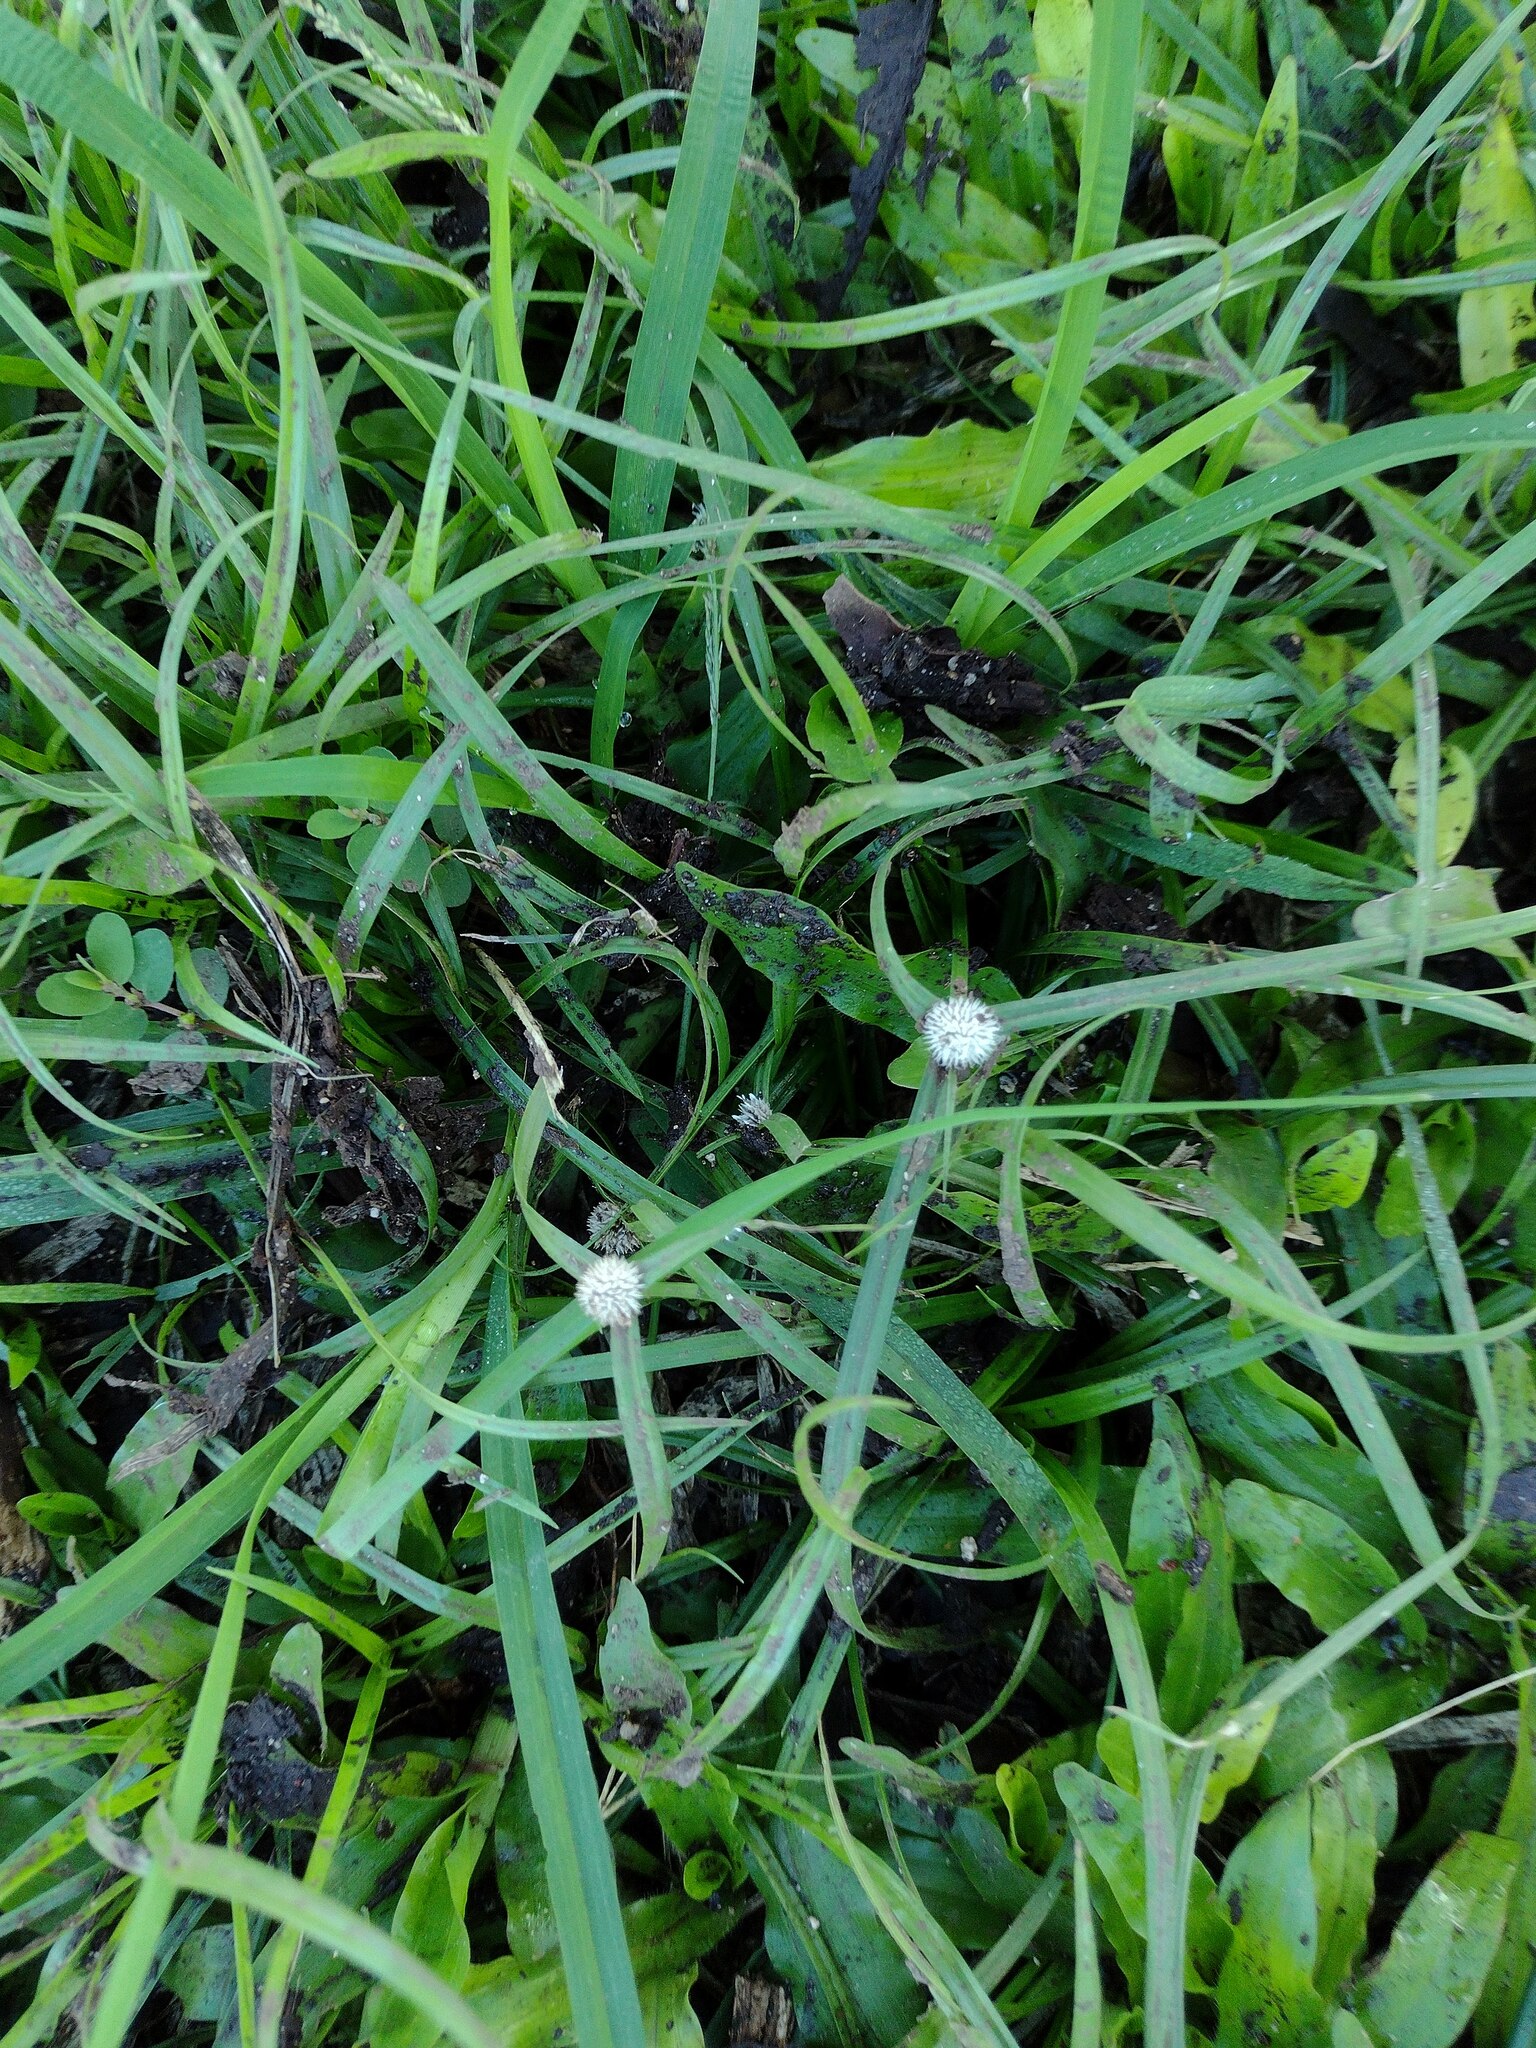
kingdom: Plantae
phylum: Tracheophyta
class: Liliopsida
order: Poales
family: Cyperaceae
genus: Cyperus
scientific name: Cyperus mindorensis
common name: Flatsedge
